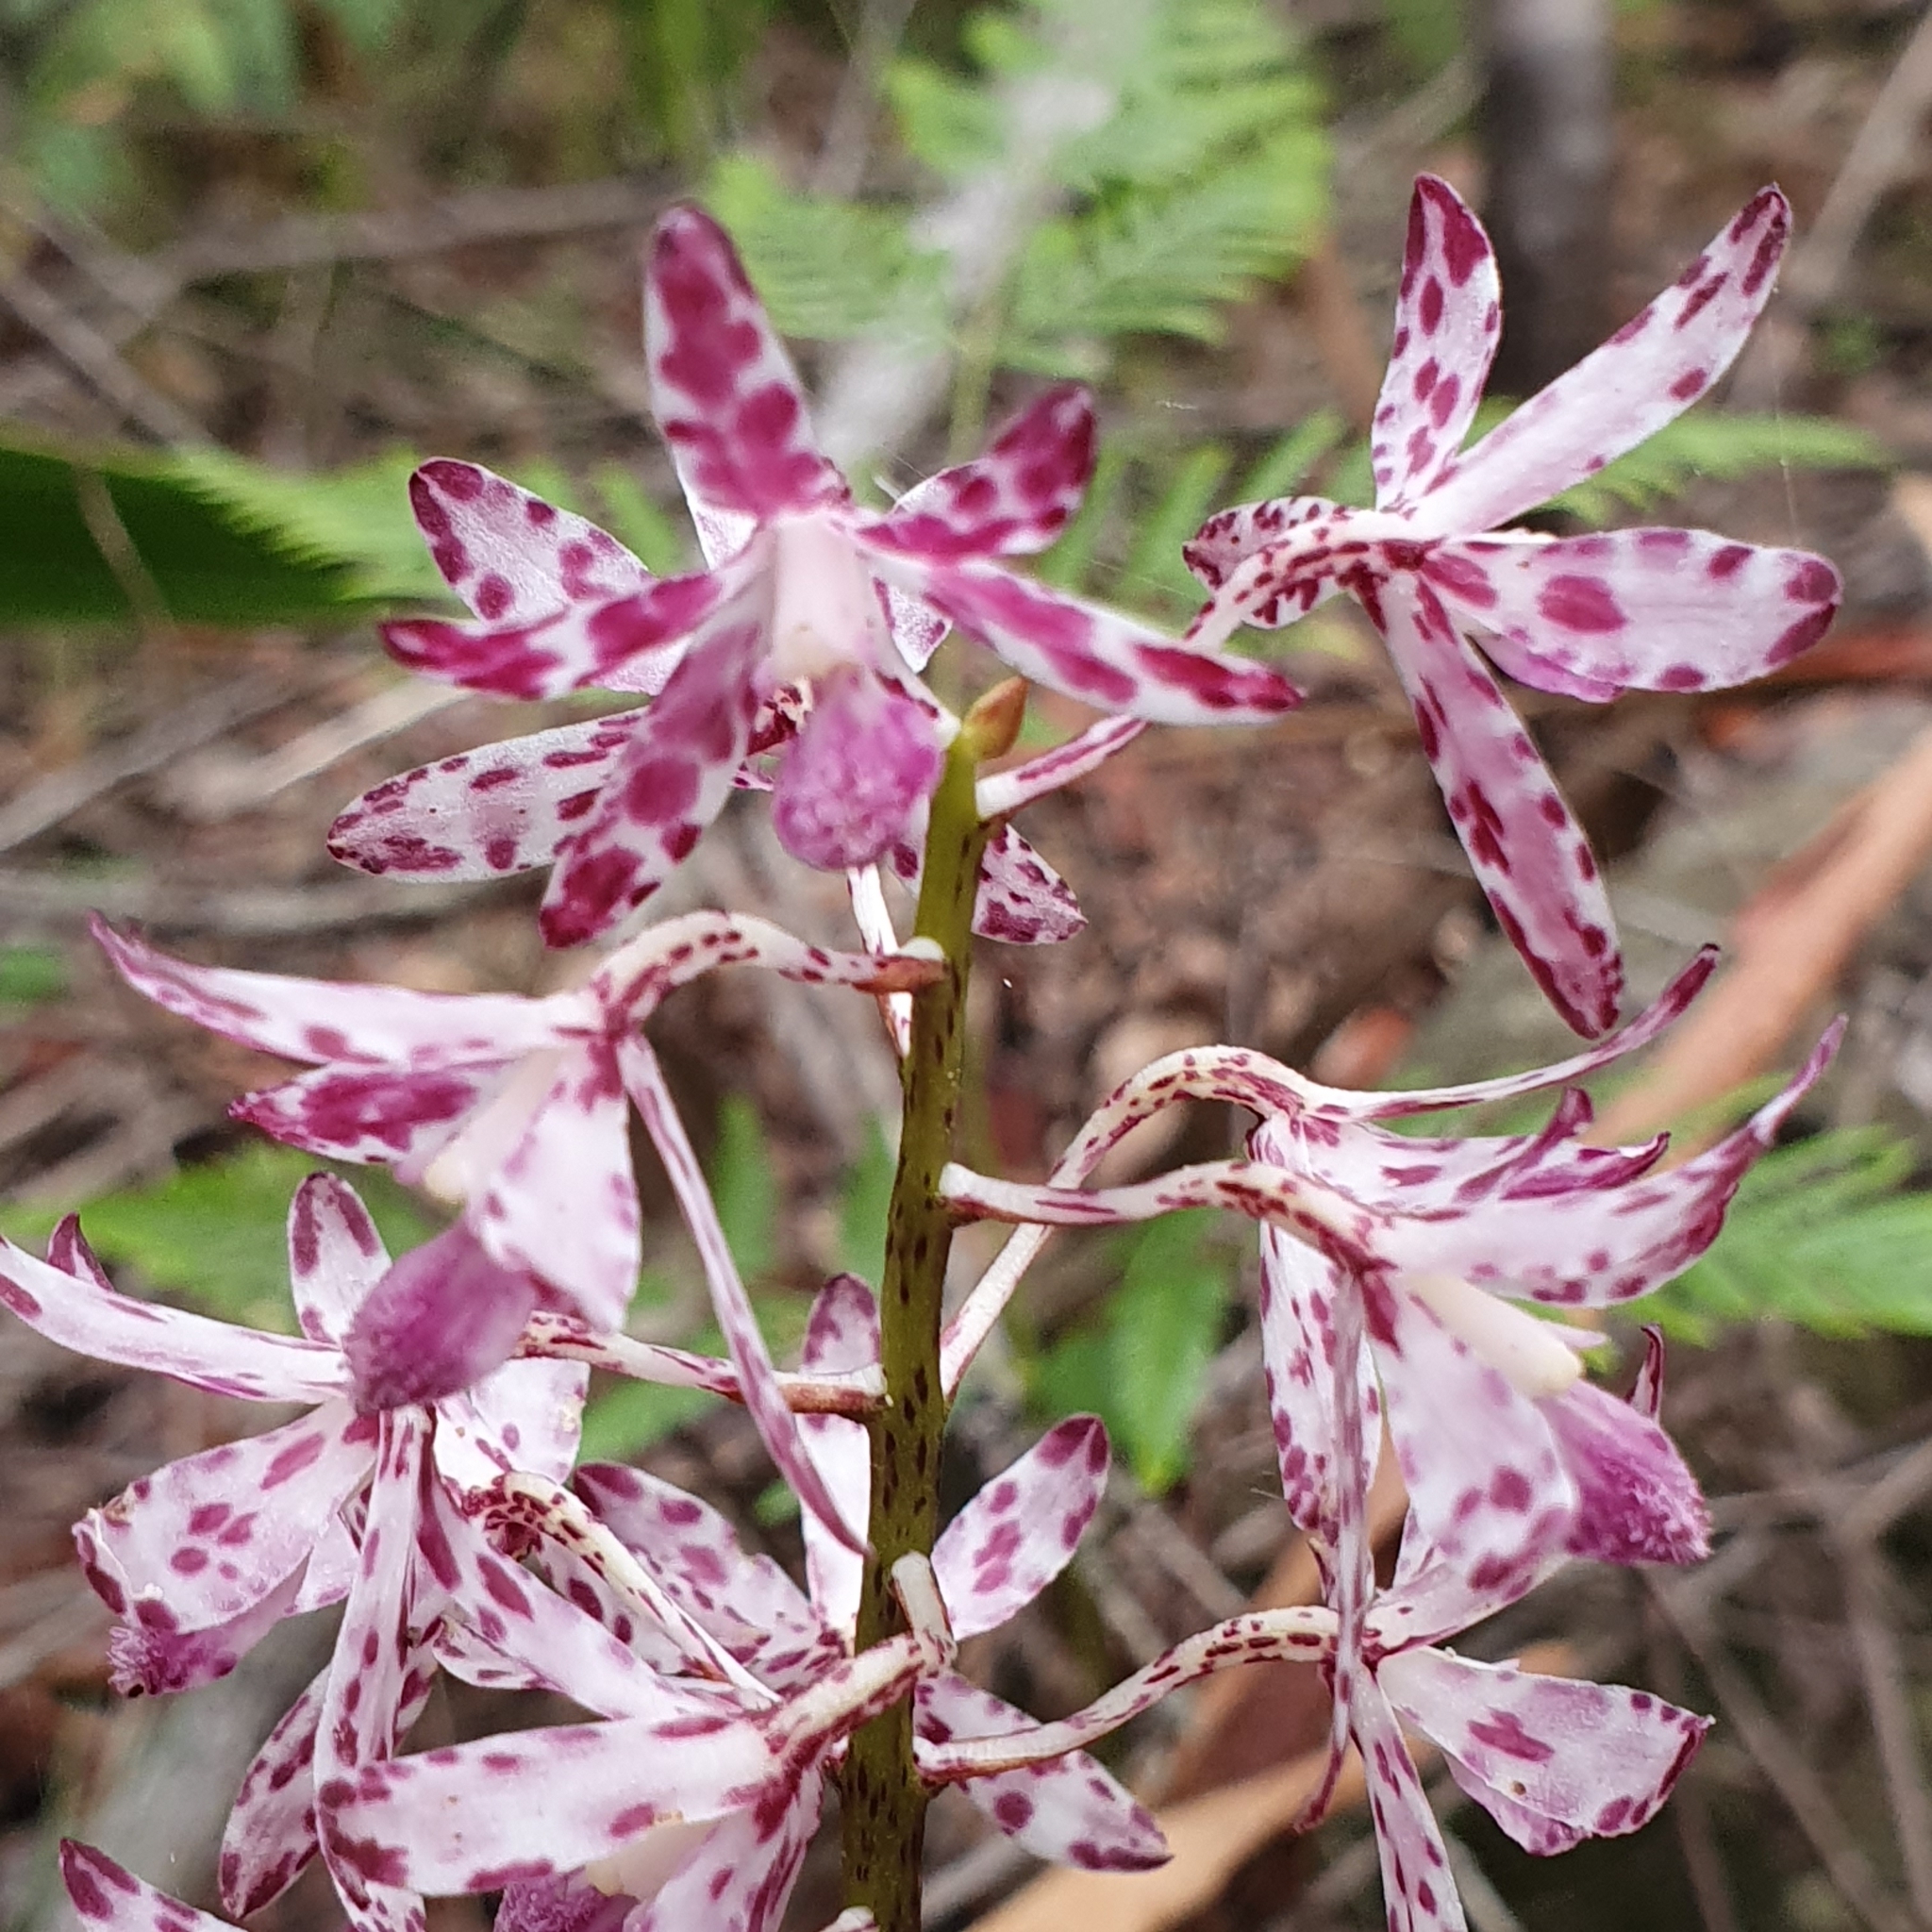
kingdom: Plantae
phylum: Tracheophyta
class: Liliopsida
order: Asparagales
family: Orchidaceae
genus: Dipodium
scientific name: Dipodium variegatum
